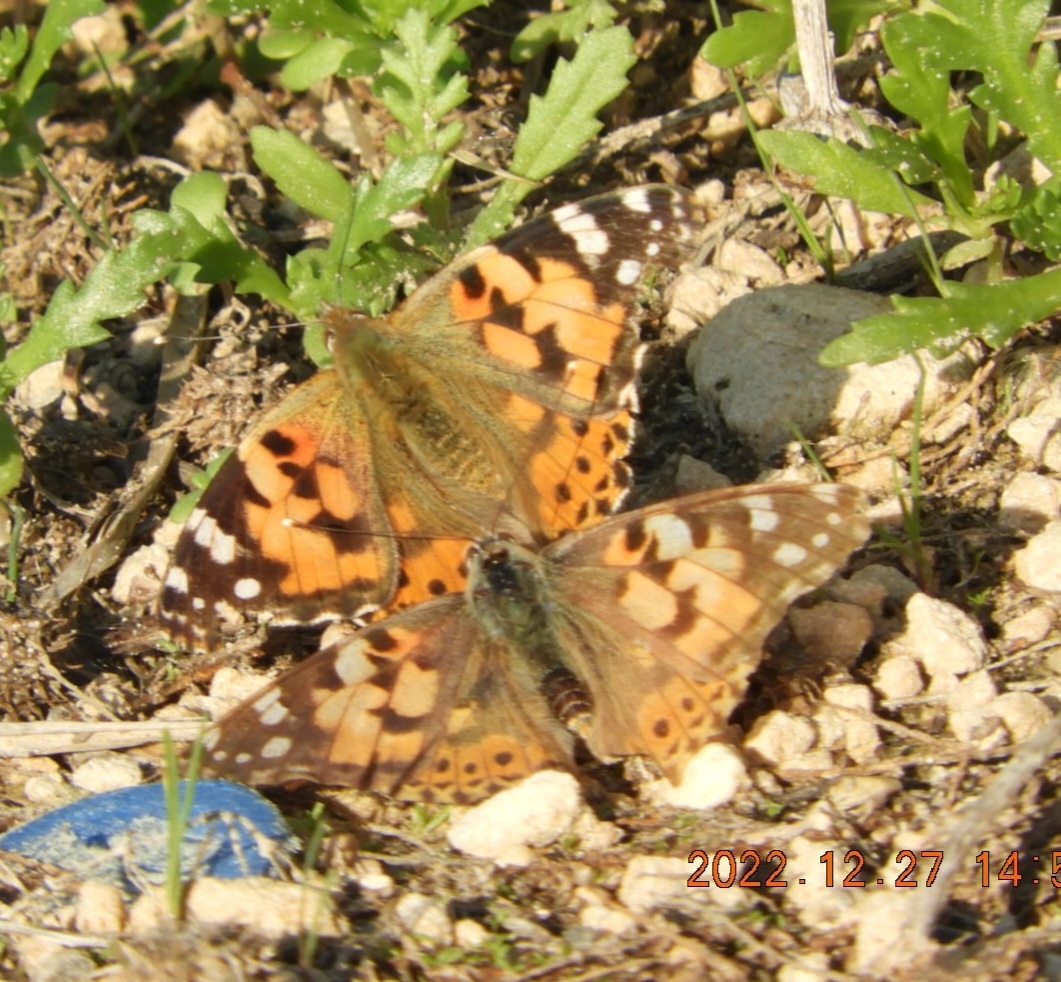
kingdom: Animalia
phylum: Arthropoda
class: Insecta
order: Lepidoptera
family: Nymphalidae
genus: Vanessa
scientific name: Vanessa cardui
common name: Painted lady
